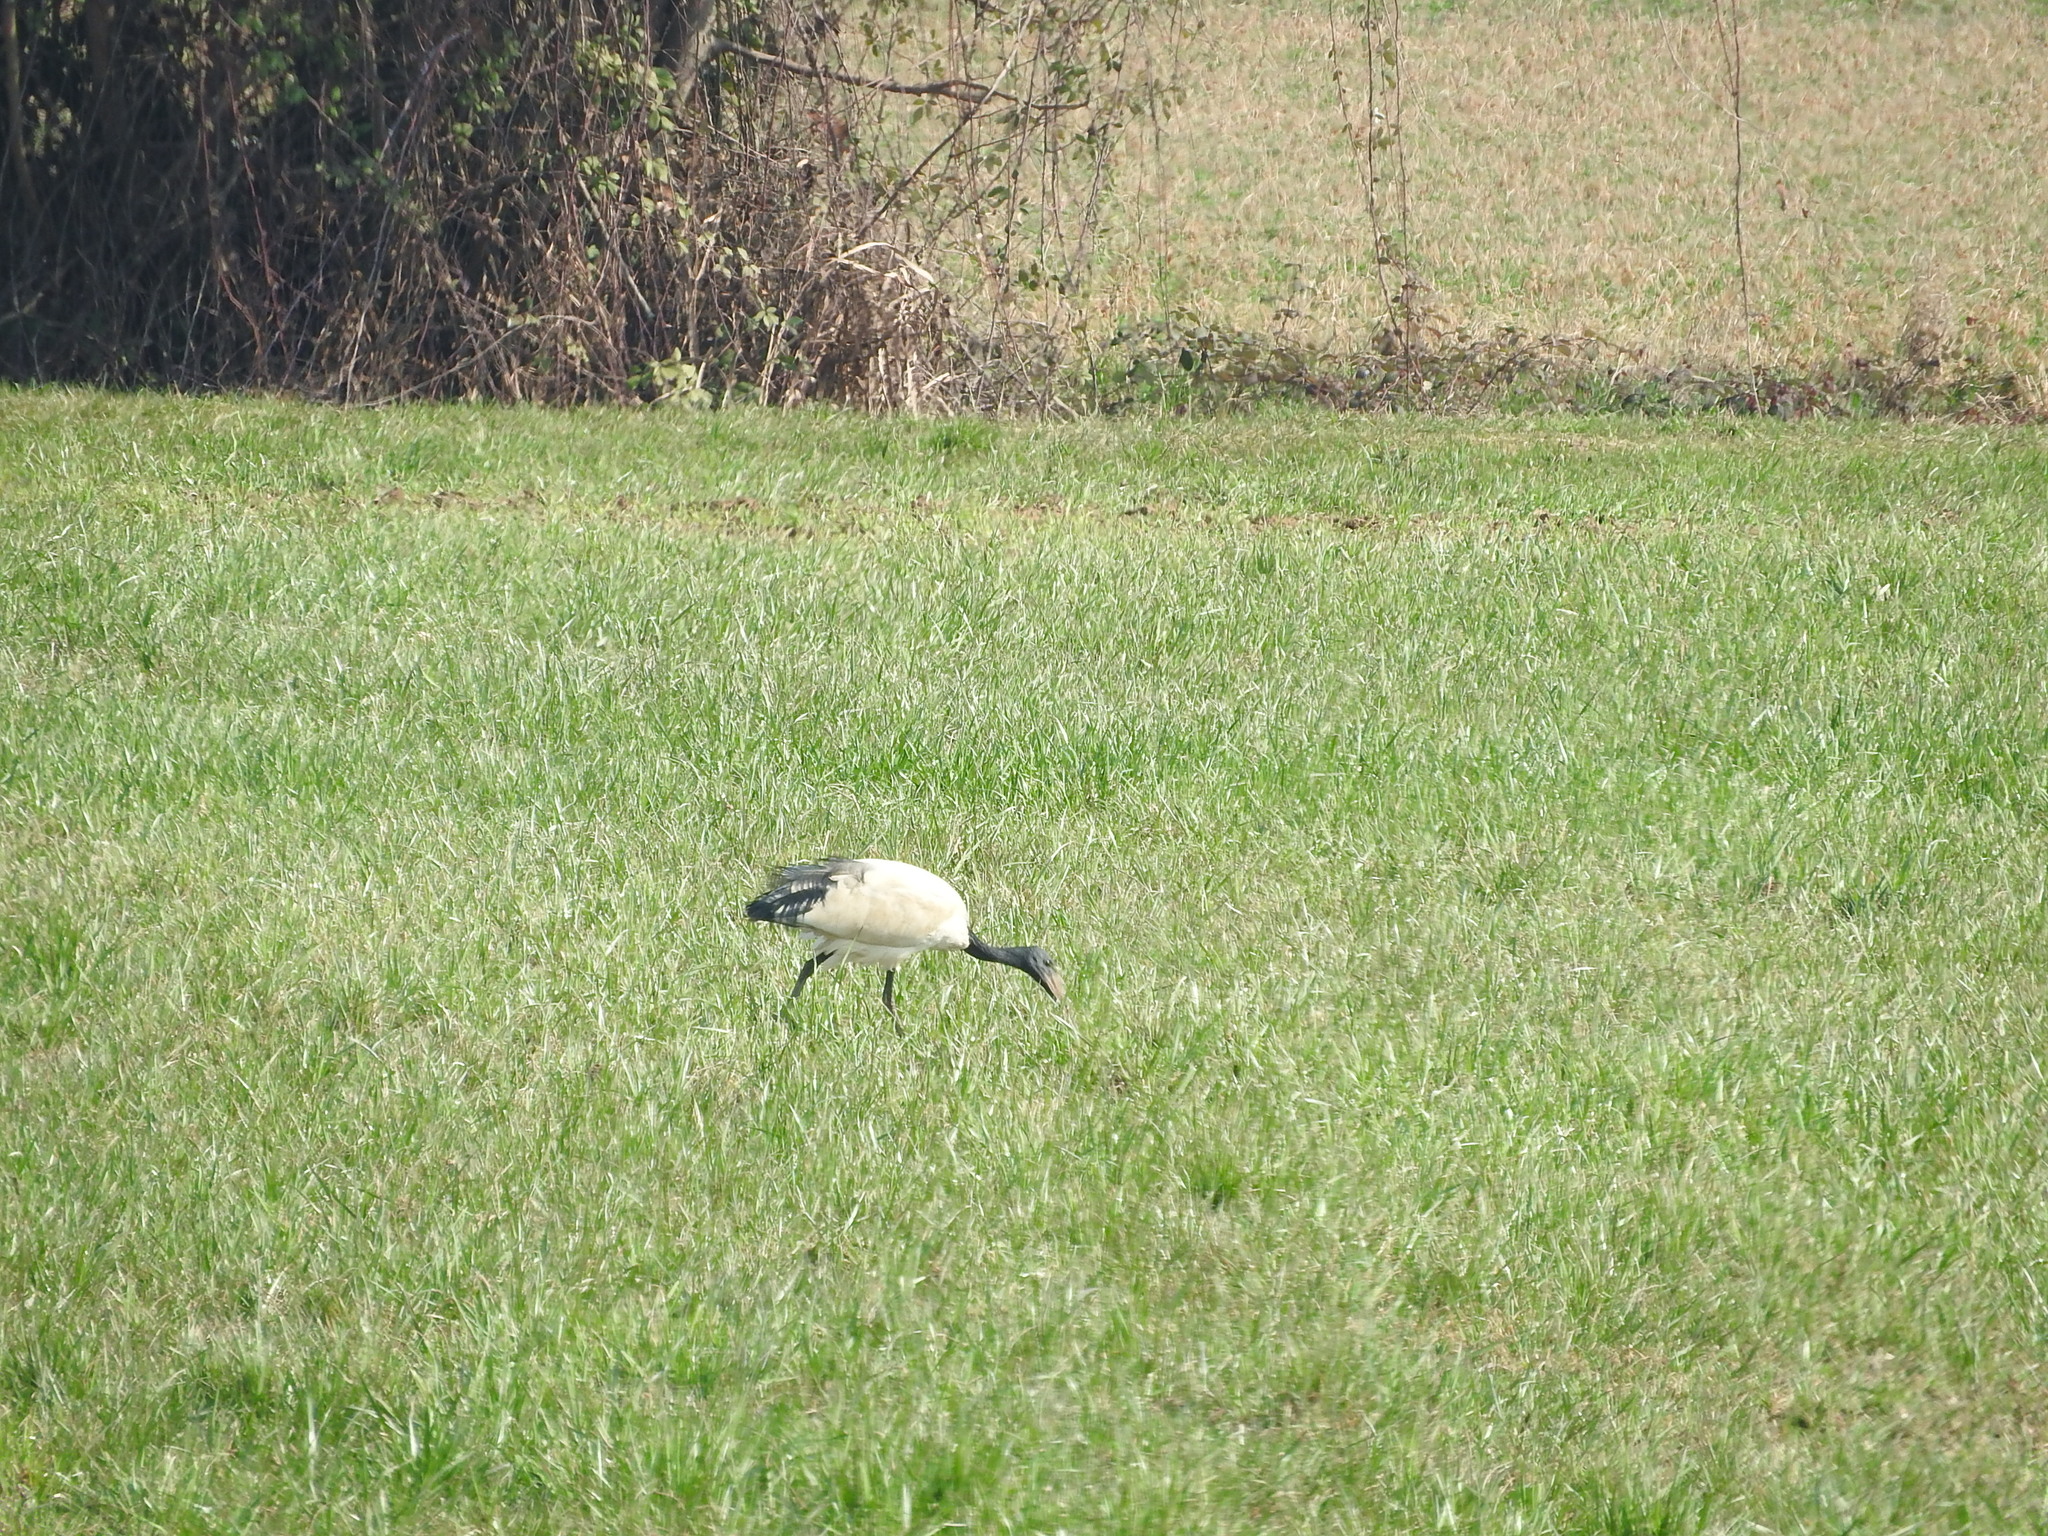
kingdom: Animalia
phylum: Chordata
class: Aves
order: Pelecaniformes
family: Threskiornithidae
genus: Threskiornis
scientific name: Threskiornis aethiopicus
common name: Sacred ibis
